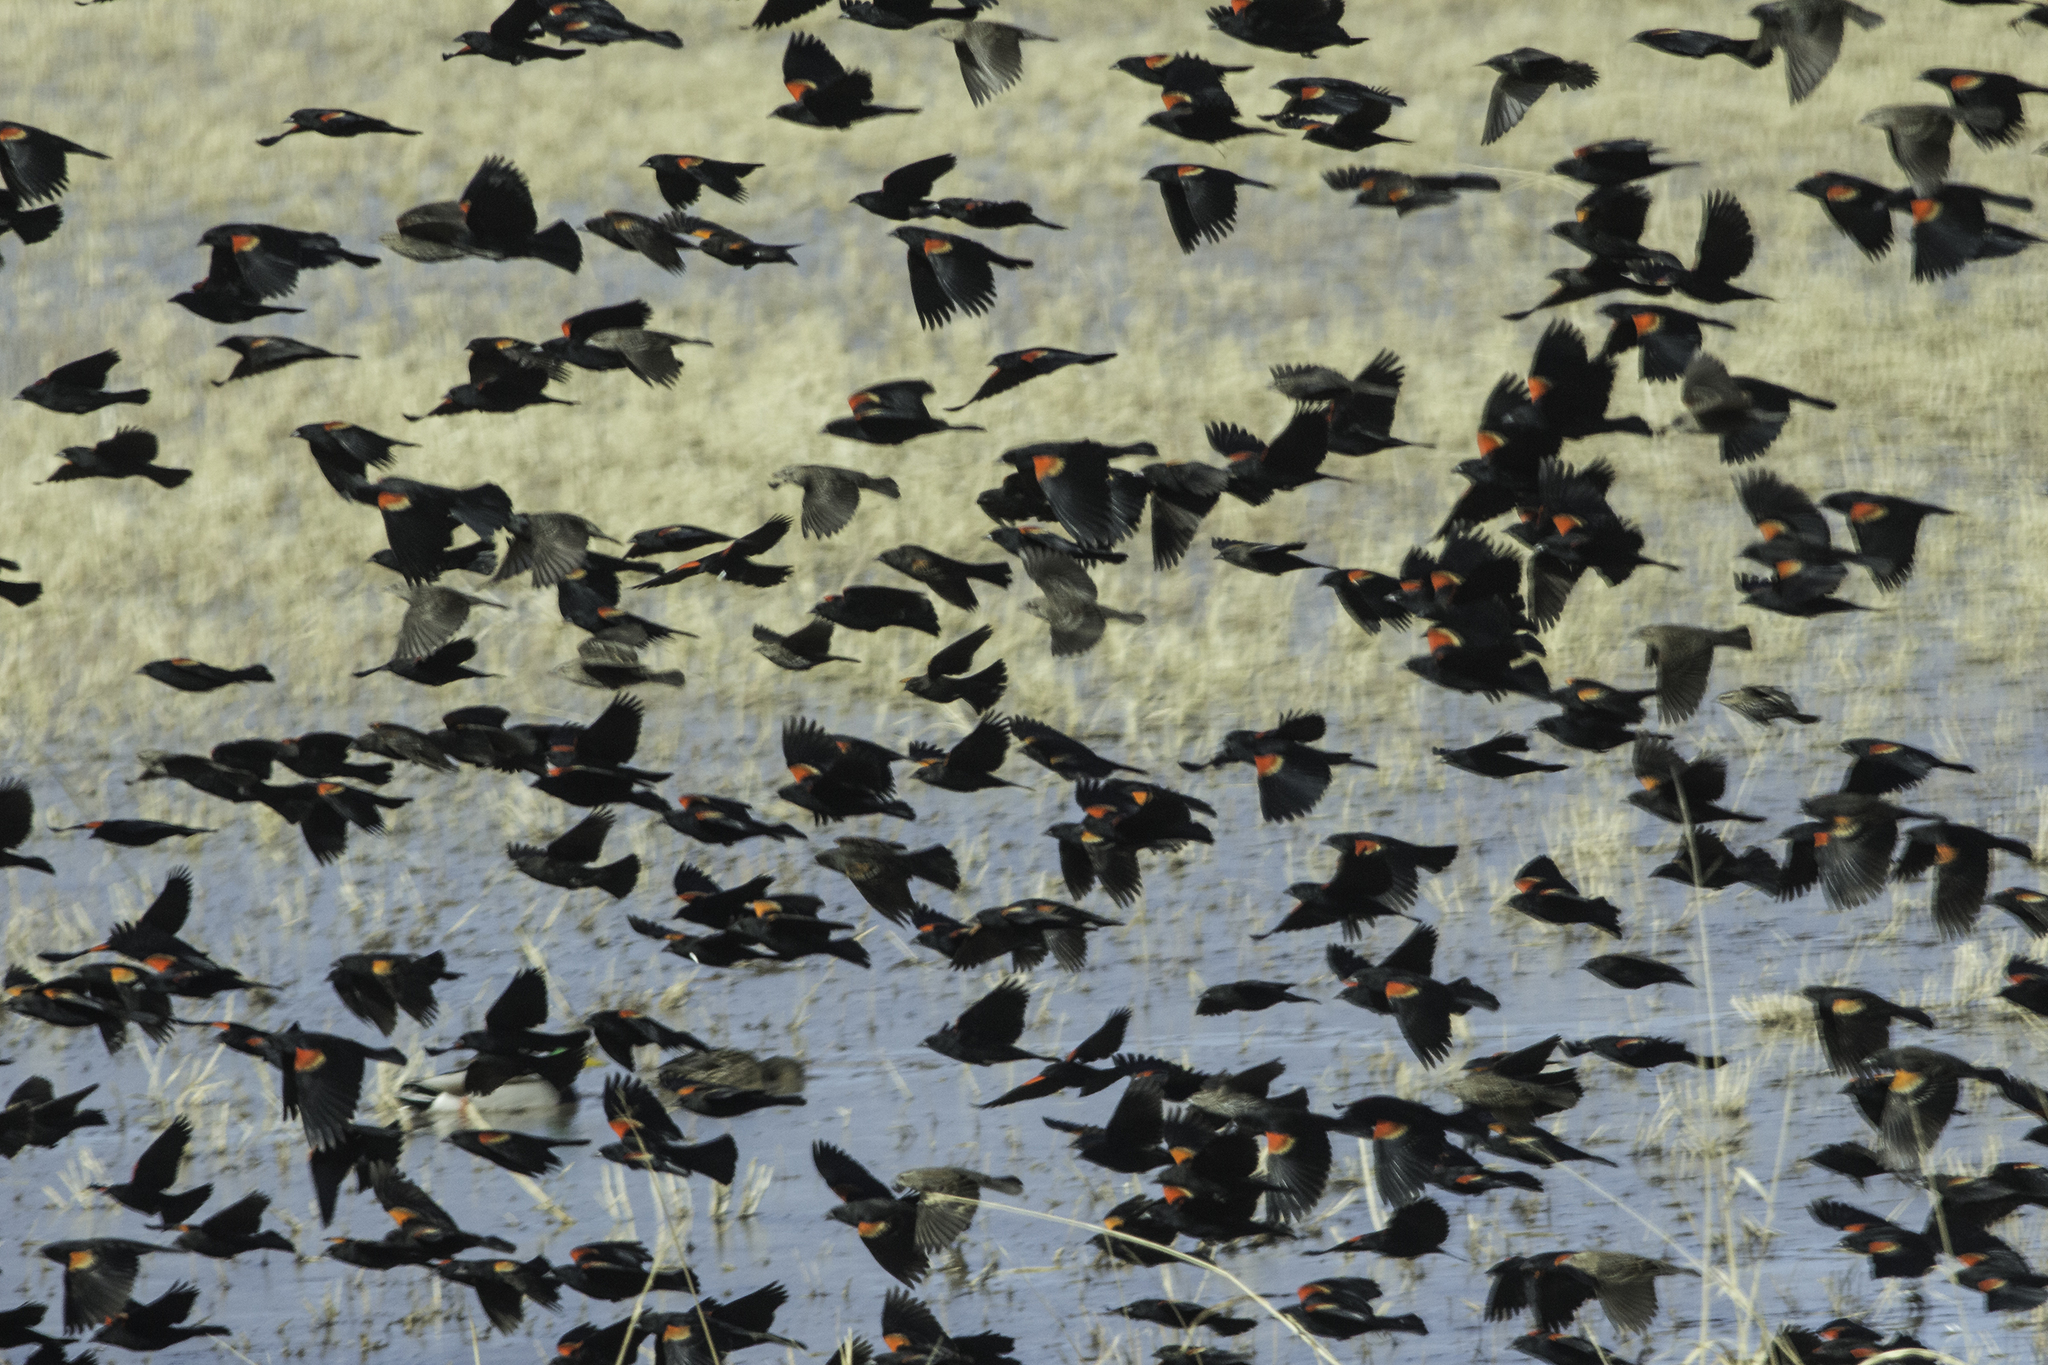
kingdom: Animalia
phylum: Chordata
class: Aves
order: Passeriformes
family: Icteridae
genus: Agelaius
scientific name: Agelaius phoeniceus
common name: Red-winged blackbird
